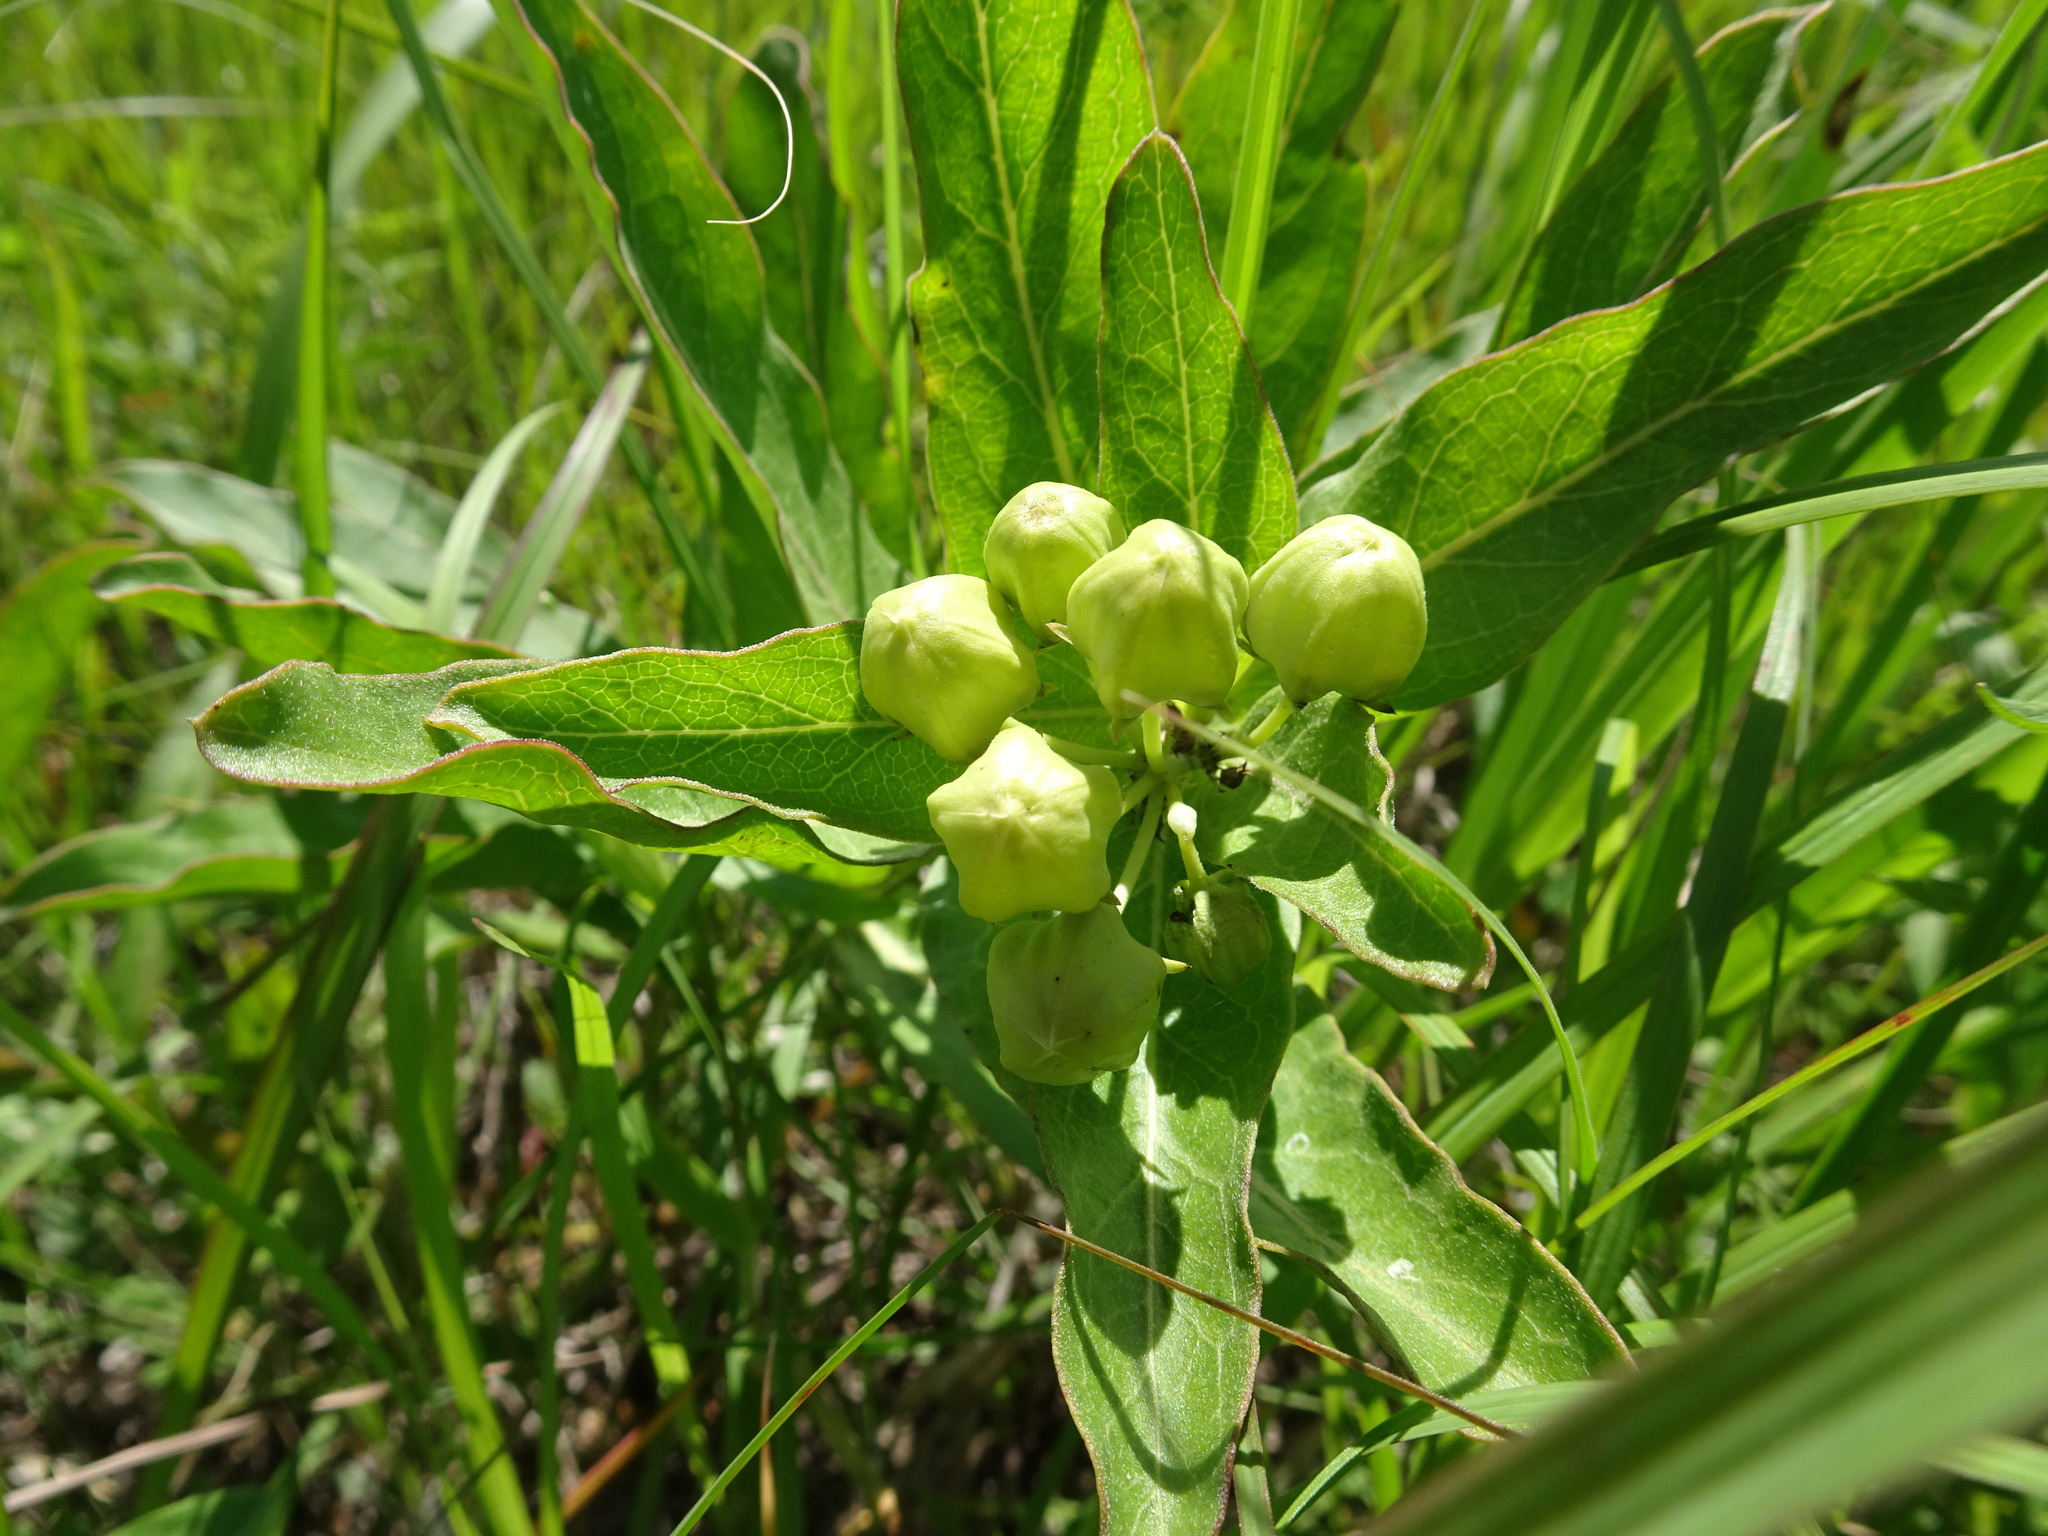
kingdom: Plantae
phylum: Tracheophyta
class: Magnoliopsida
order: Gentianales
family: Apocynaceae
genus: Asclepias
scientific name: Asclepias viridis
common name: Antelope-horns
